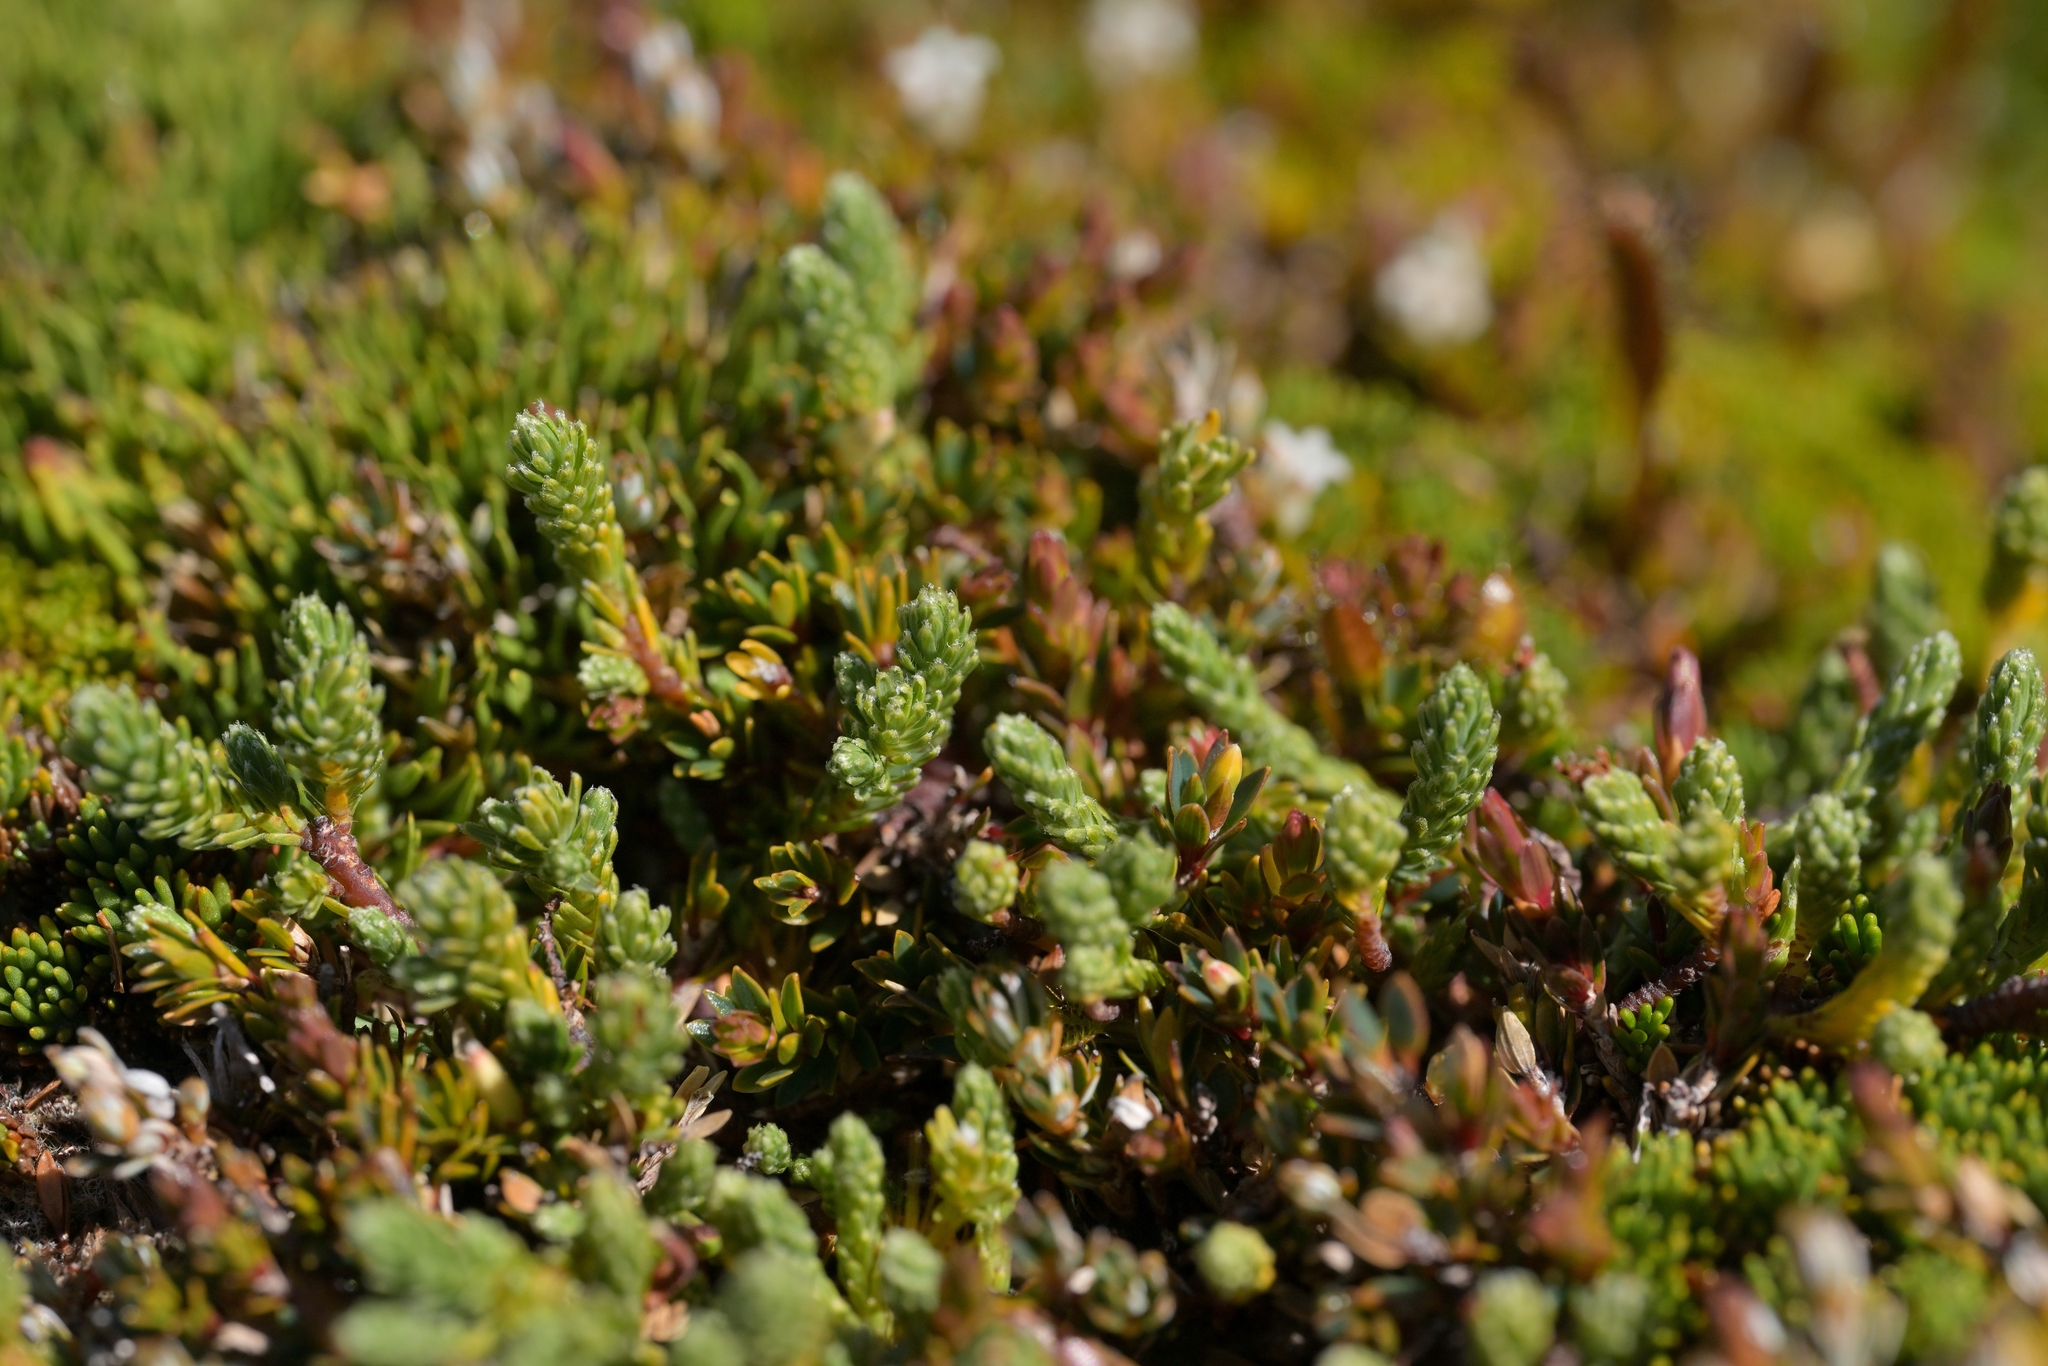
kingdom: Plantae
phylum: Tracheophyta
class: Magnoliopsida
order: Malvales
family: Thymelaeaceae
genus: Kelleria
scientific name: Kelleria dieffenbachii
